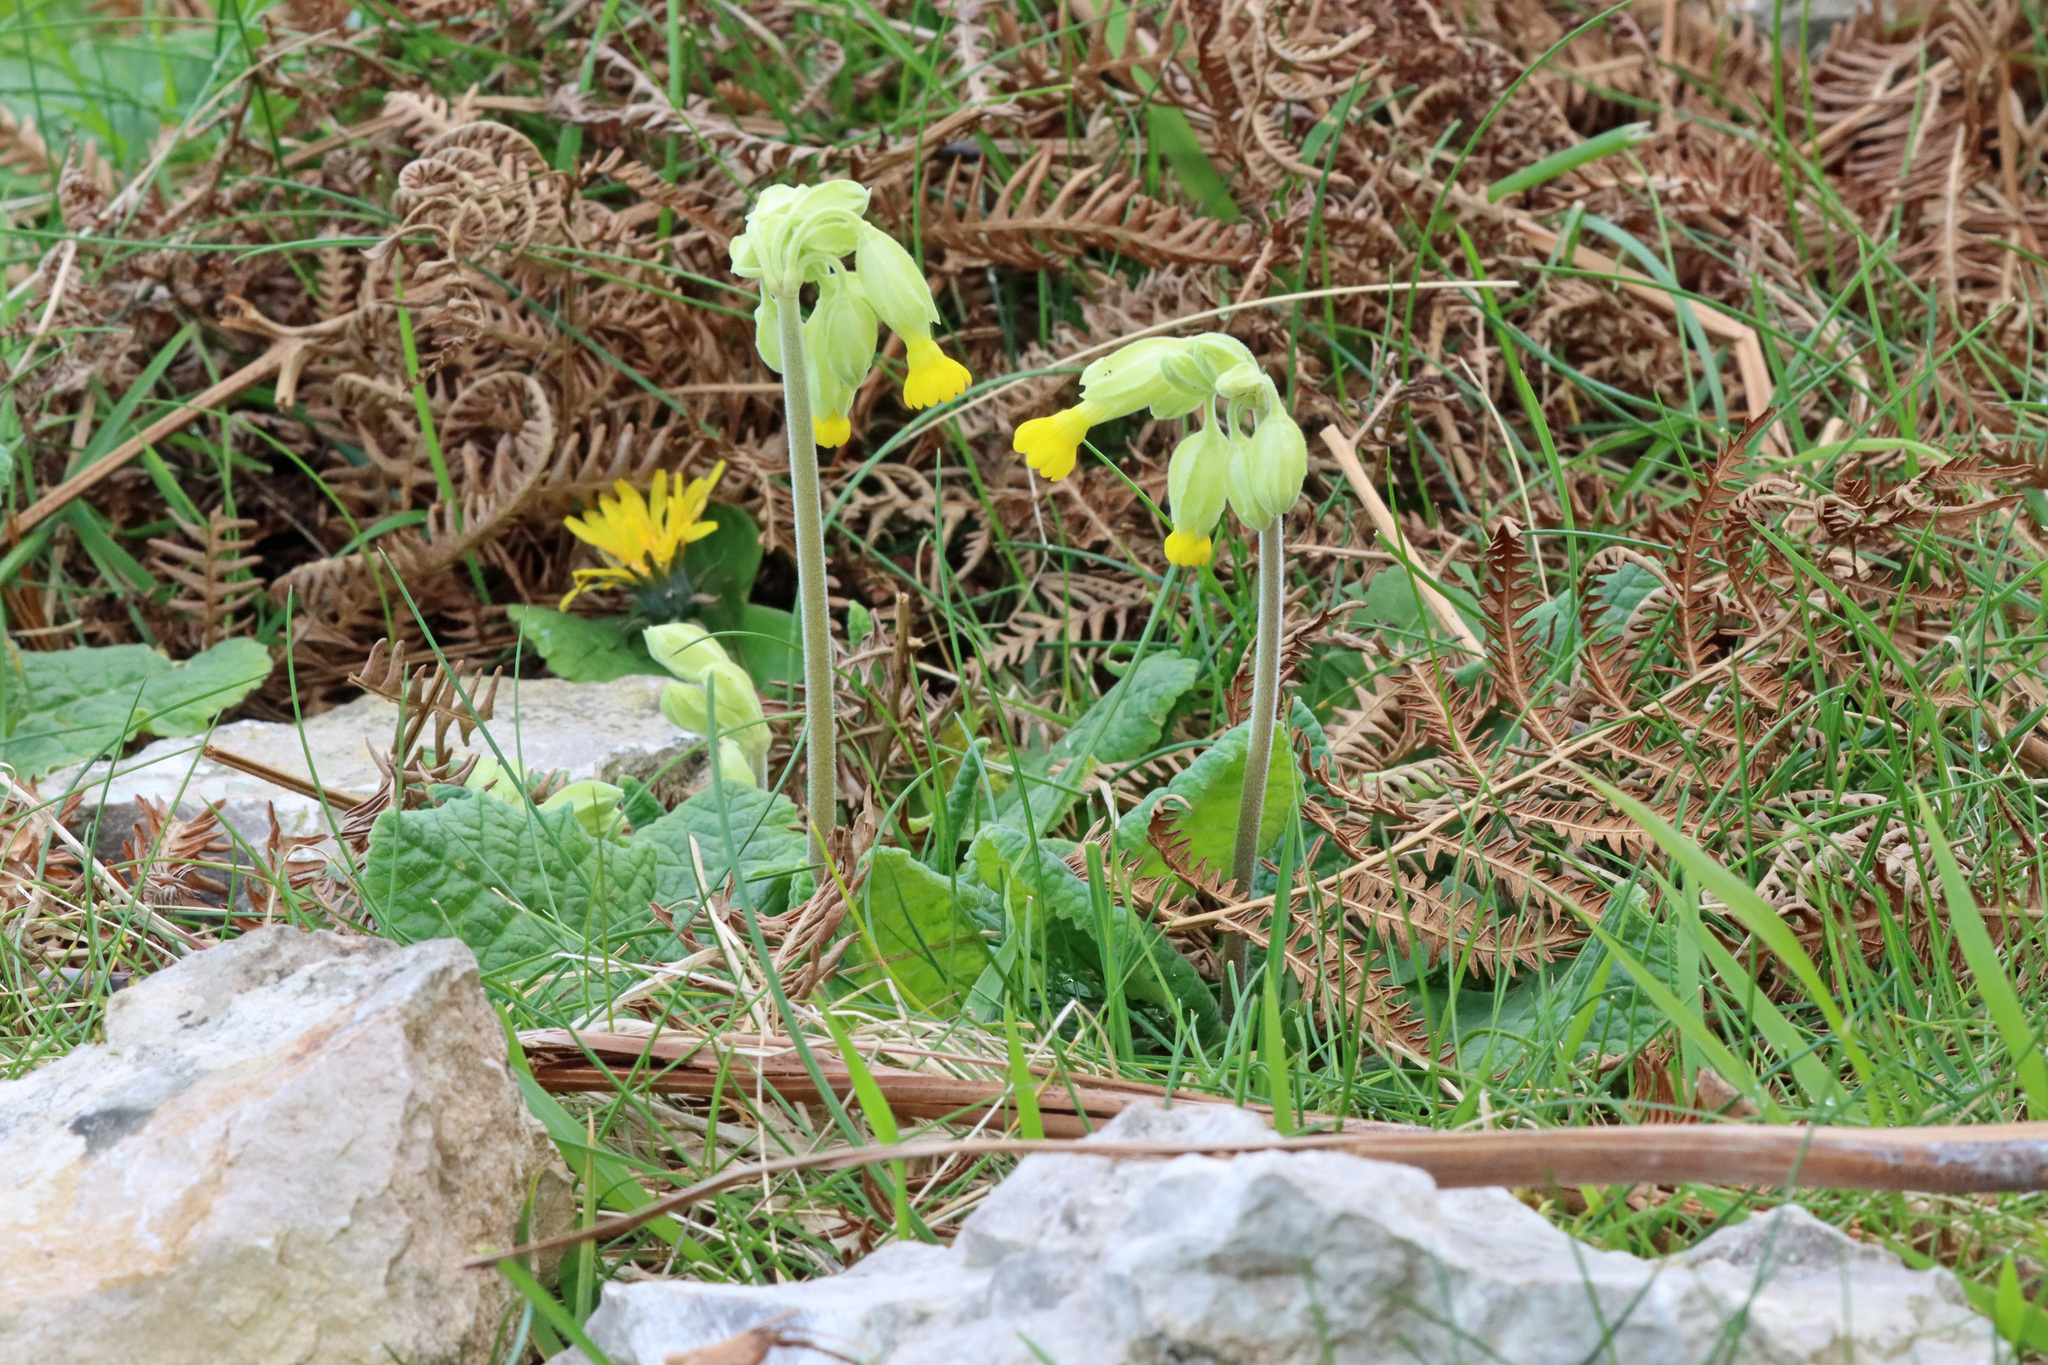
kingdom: Plantae
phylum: Tracheophyta
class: Magnoliopsida
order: Ericales
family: Primulaceae
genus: Primula
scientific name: Primula veris
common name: Cowslip
